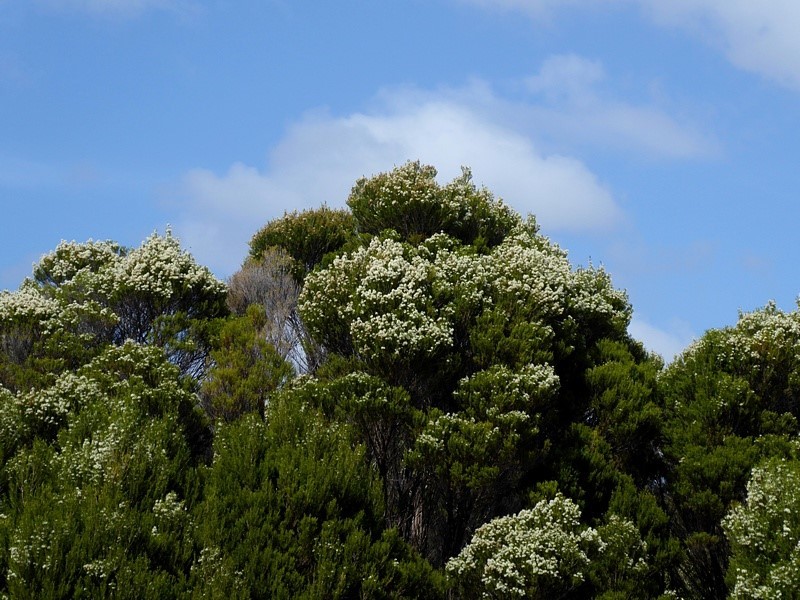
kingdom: Plantae
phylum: Tracheophyta
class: Magnoliopsida
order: Myrtales
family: Myrtaceae
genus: Melaleuca
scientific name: Melaleuca ericifolia
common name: Paperbark teatree
